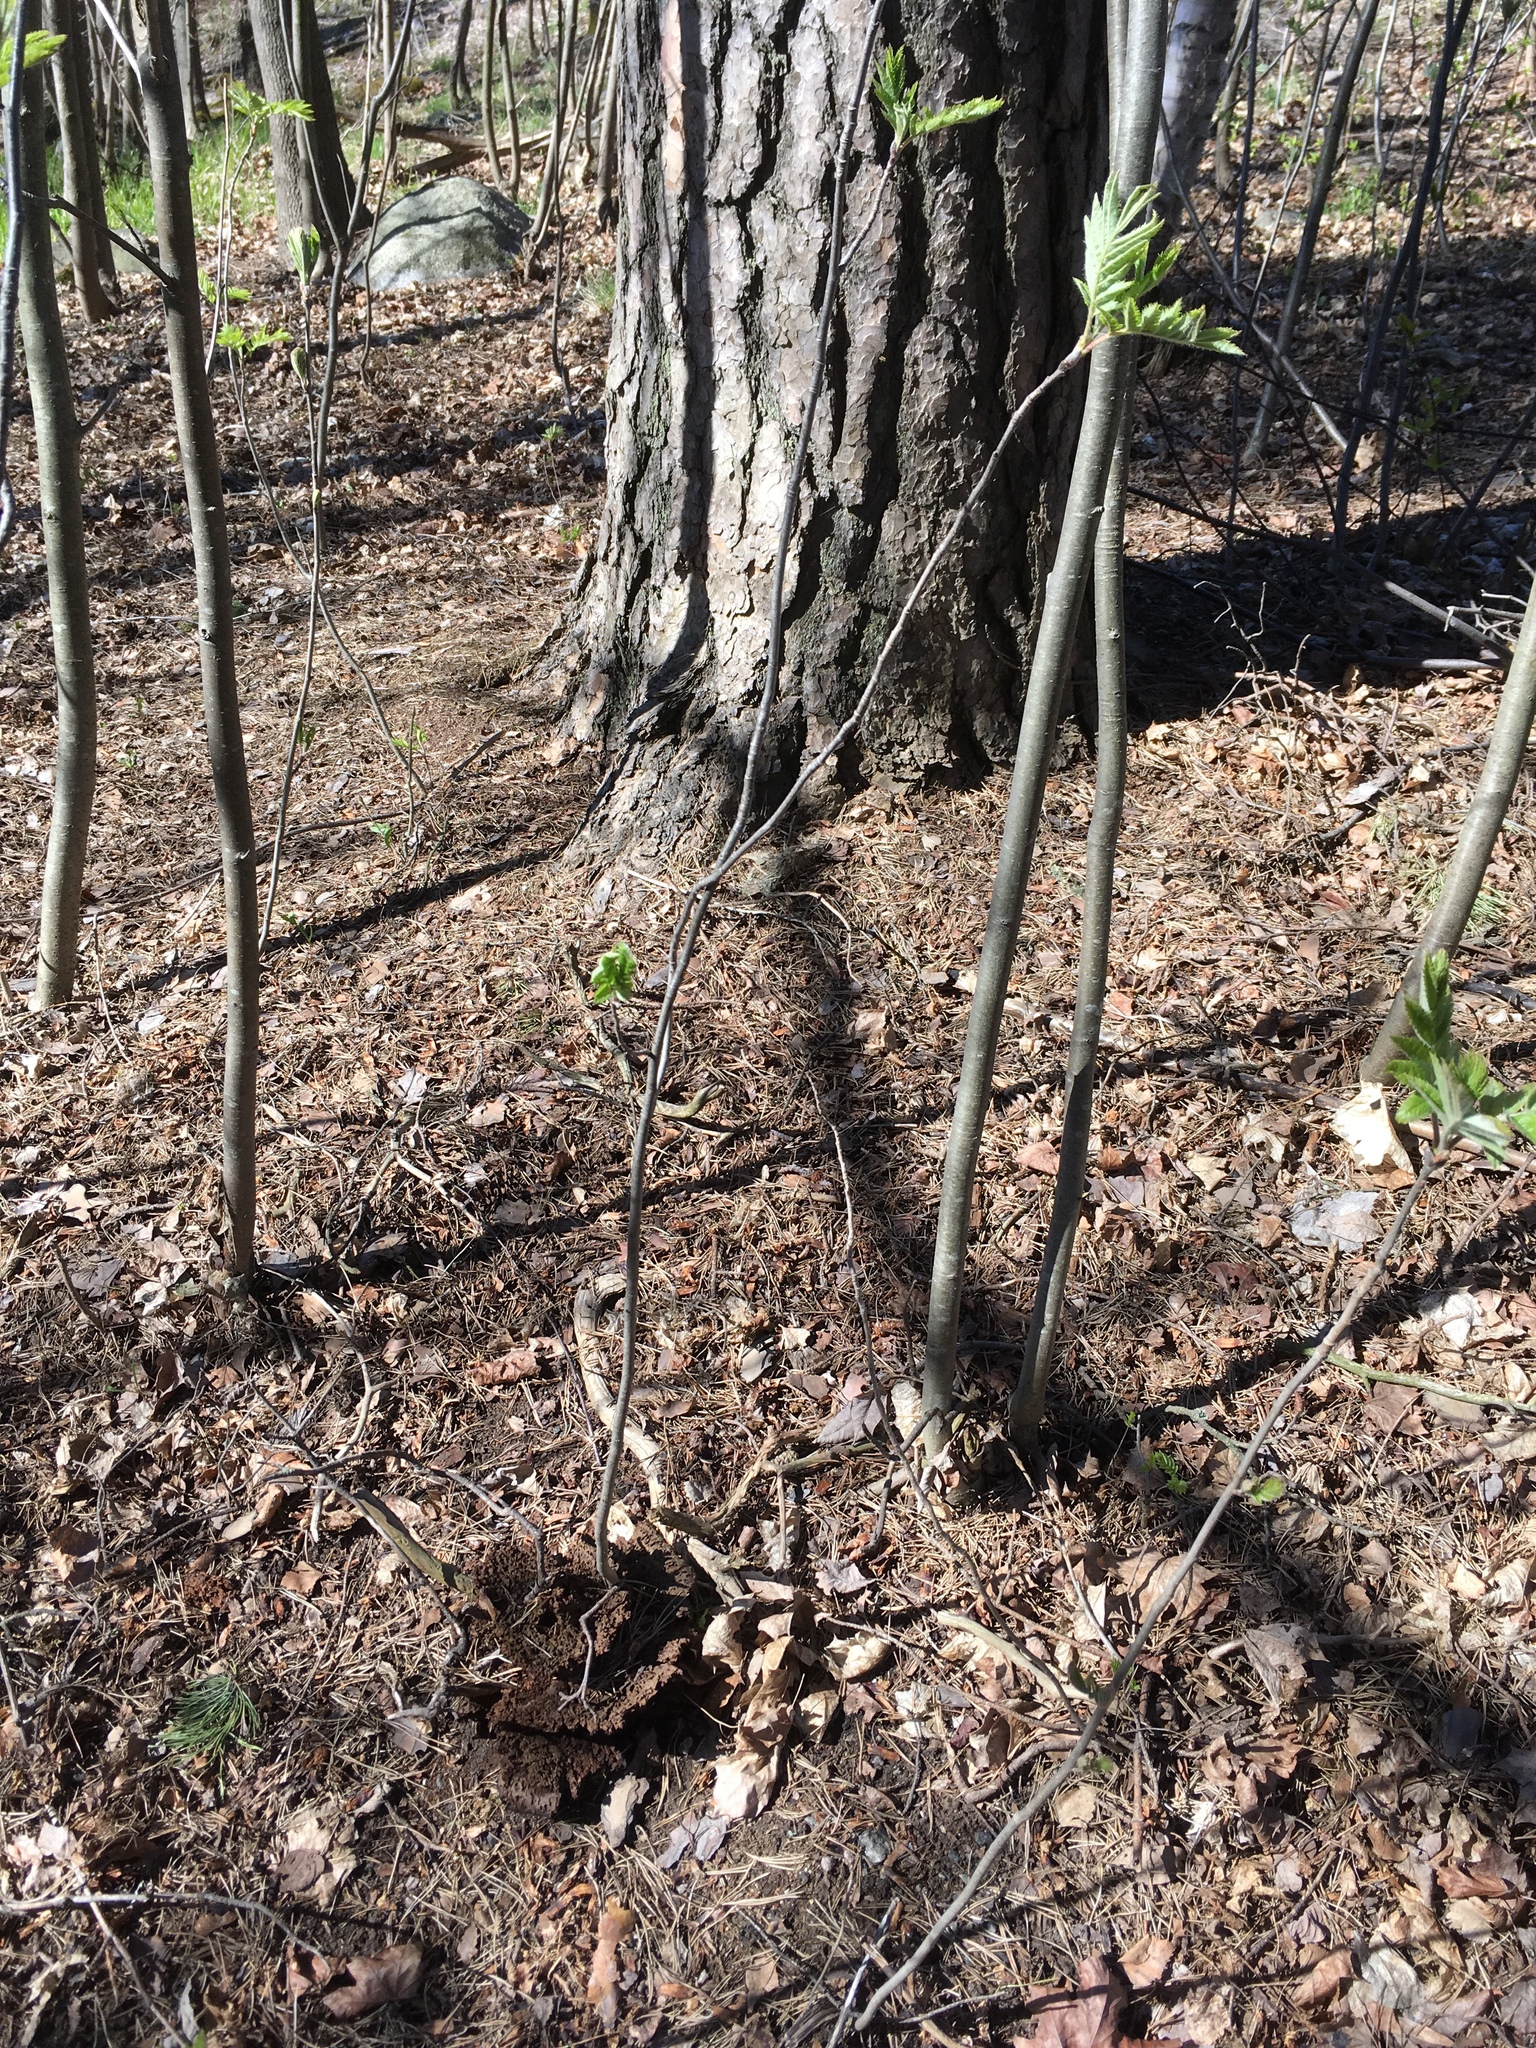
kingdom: Fungi
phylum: Basidiomycota
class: Agaricomycetes
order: Polyporales
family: Laetiporaceae
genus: Phaeolus
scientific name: Phaeolus schweinitzii
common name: Dyer's mazegill
